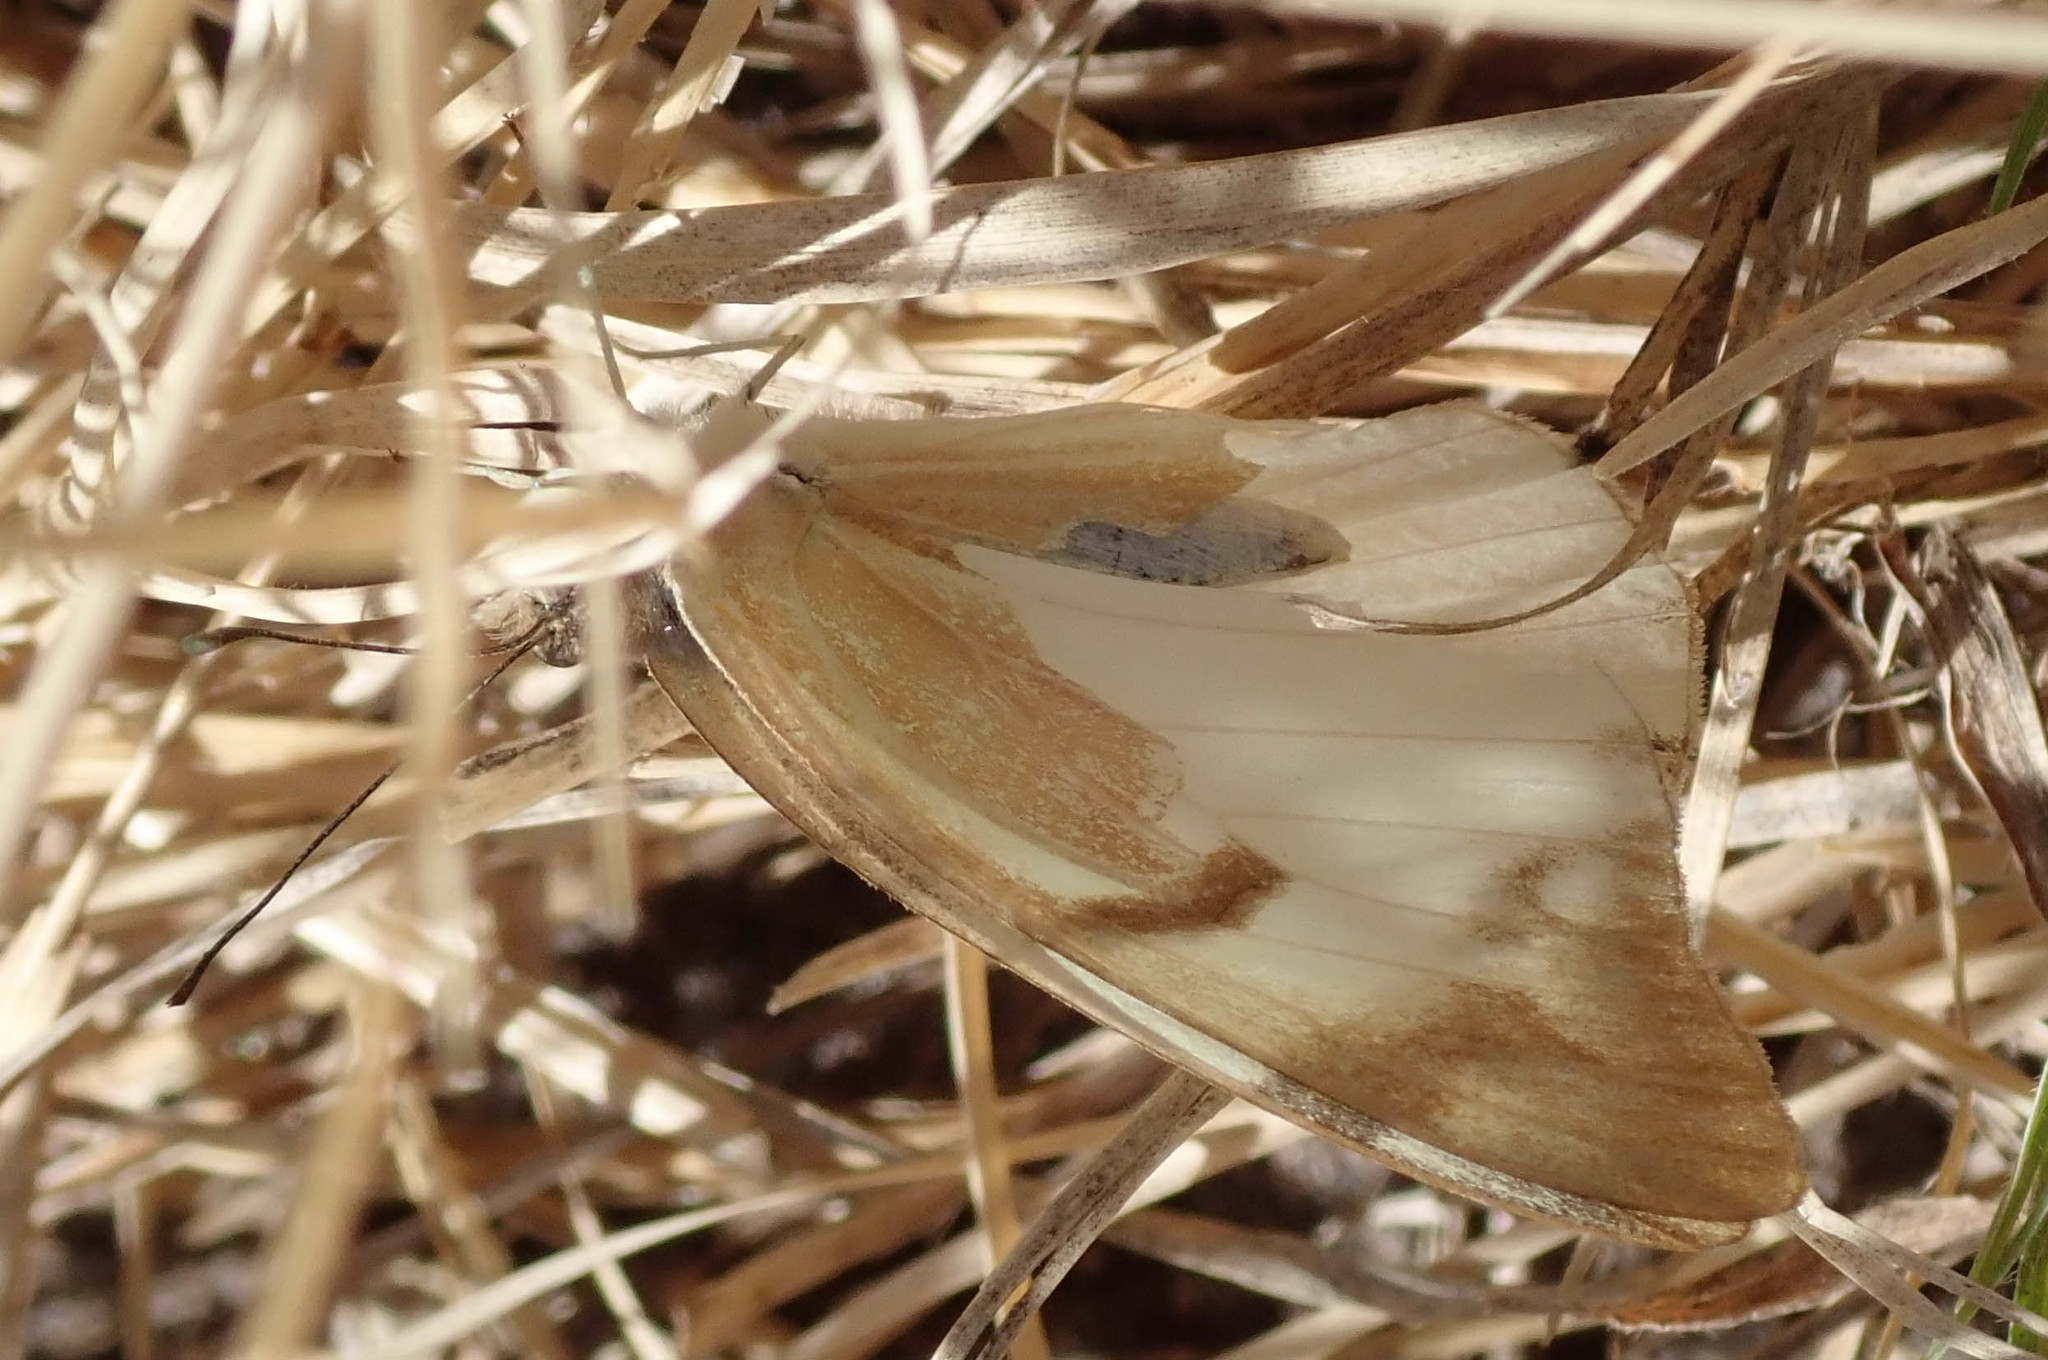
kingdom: Animalia
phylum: Arthropoda
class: Insecta
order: Lepidoptera
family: Pieridae
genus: Belenois
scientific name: Belenois gidica
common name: Pointed caper white
